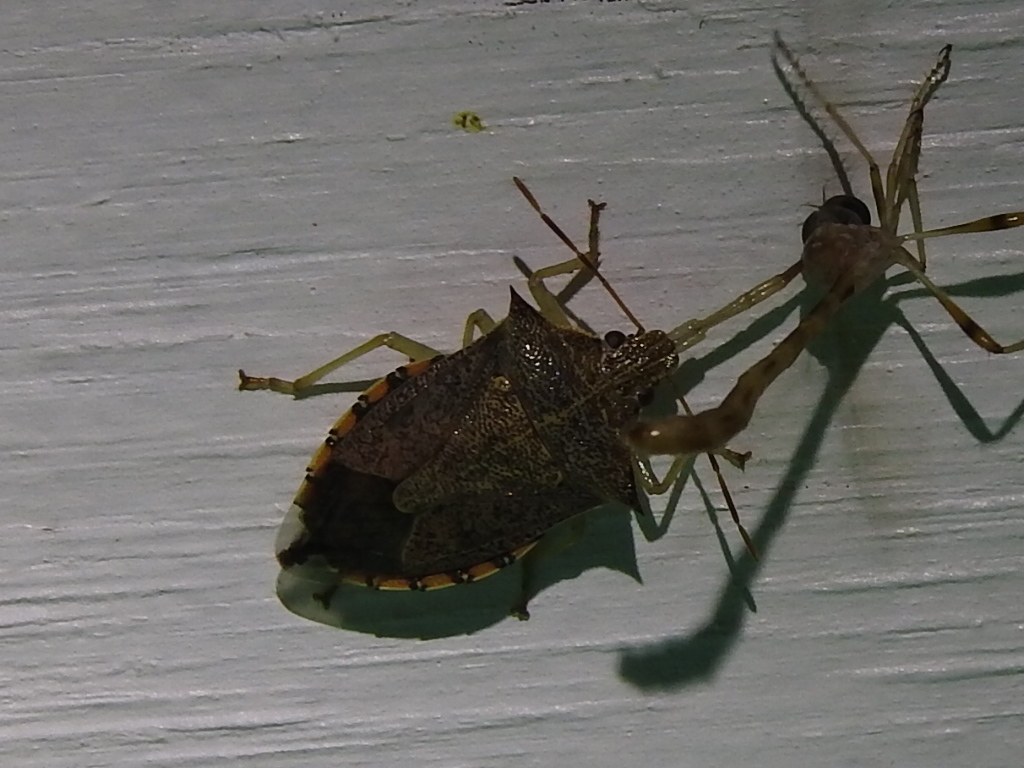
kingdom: Animalia
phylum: Arthropoda
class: Insecta
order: Hemiptera
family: Pentatomidae
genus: Podisus
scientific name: Podisus maculiventris
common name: Spined soldier bug
